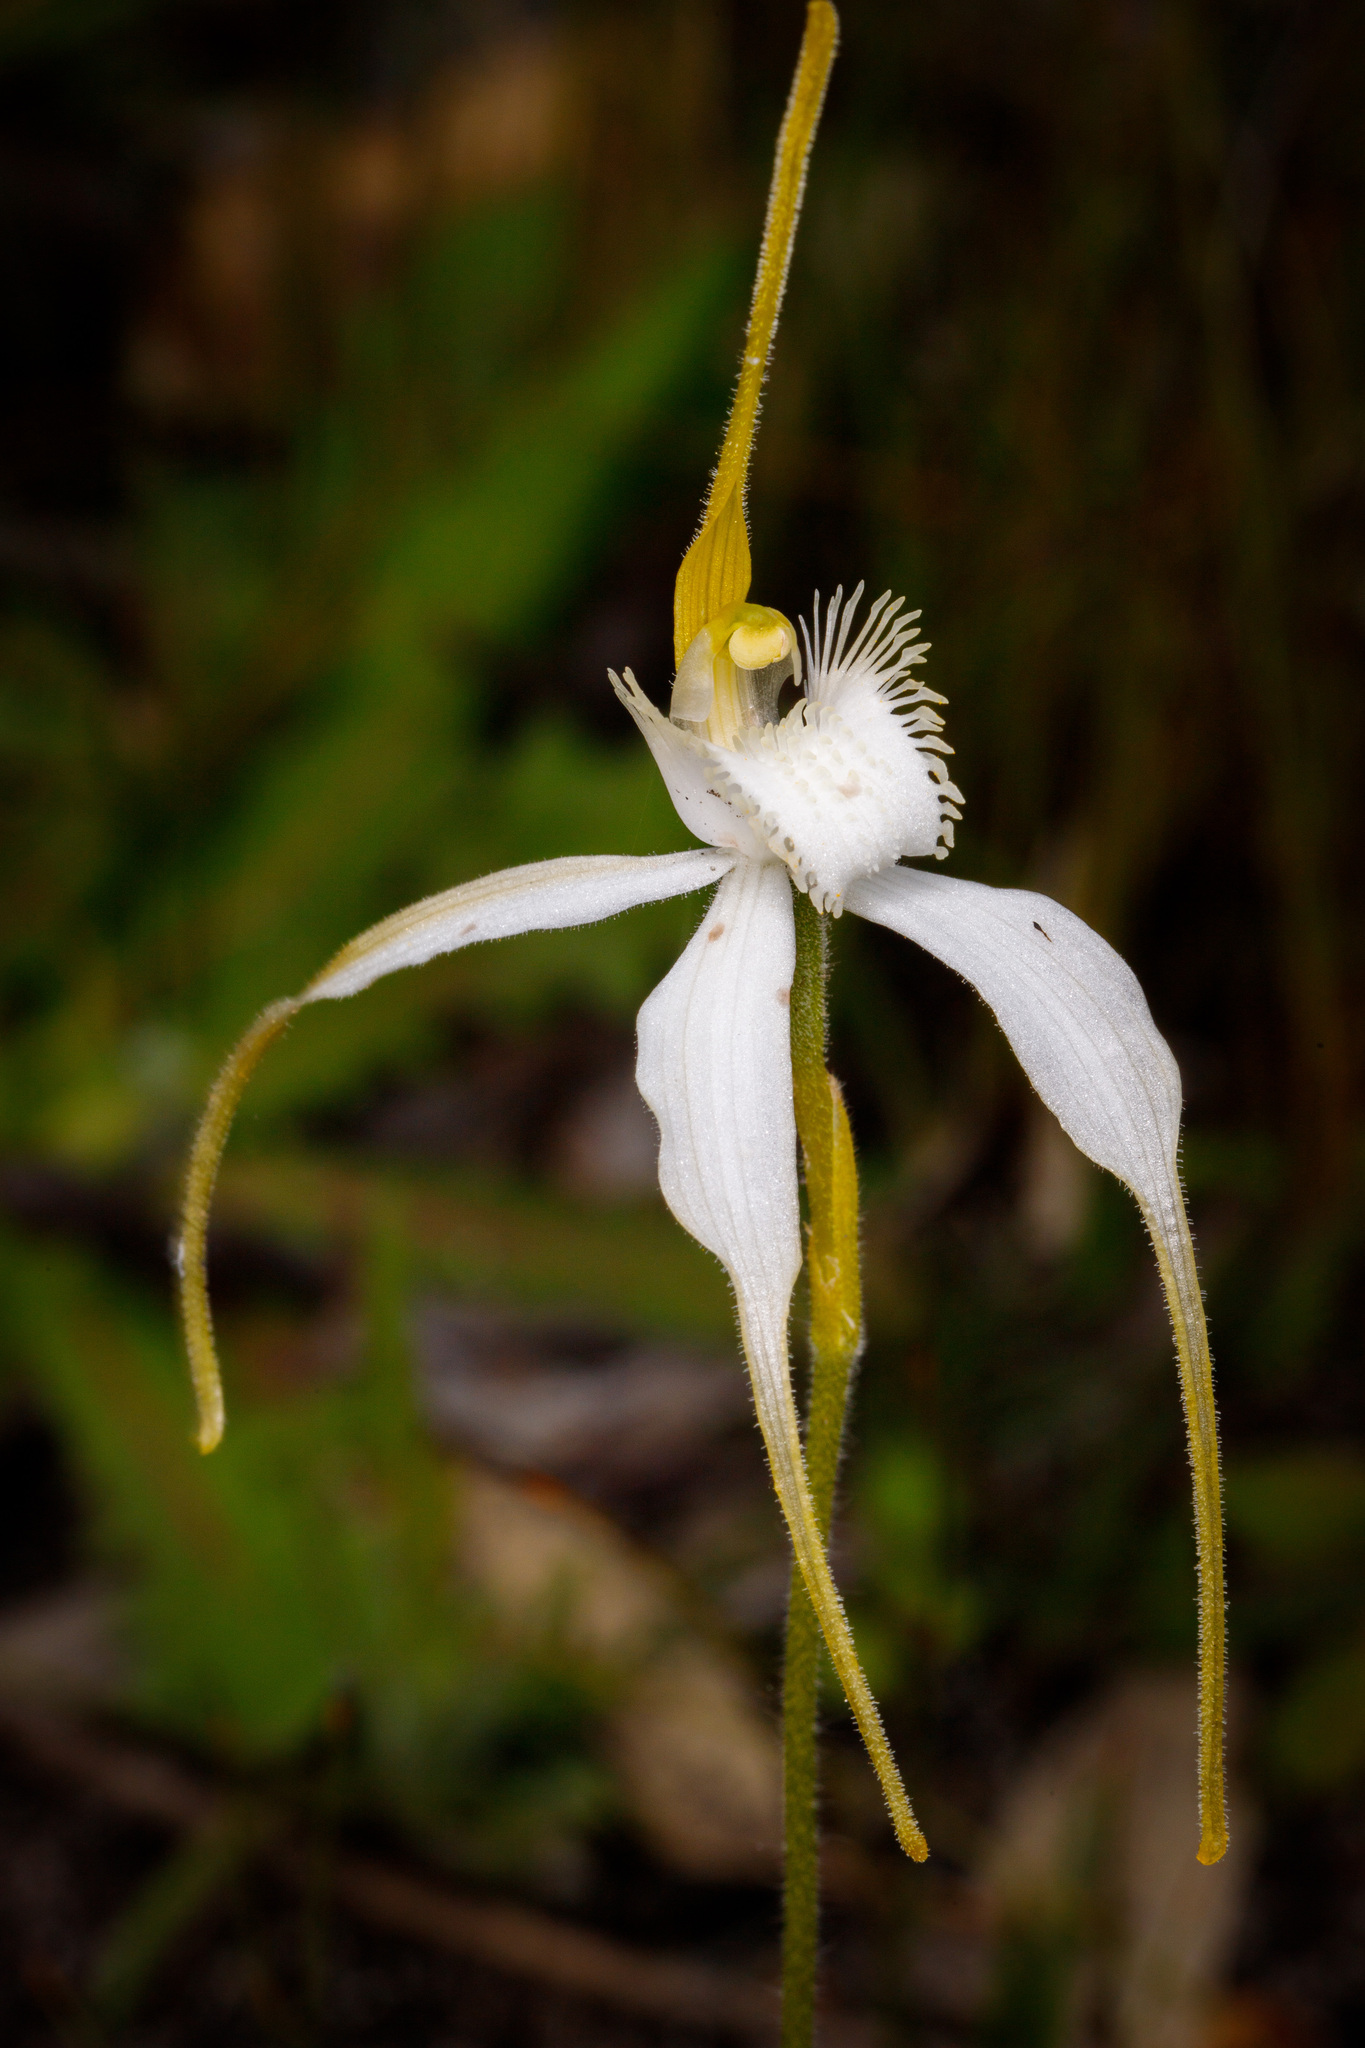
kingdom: Plantae
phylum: Tracheophyta
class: Liliopsida
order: Asparagales
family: Orchidaceae
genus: Caladenia
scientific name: Caladenia longicauda
